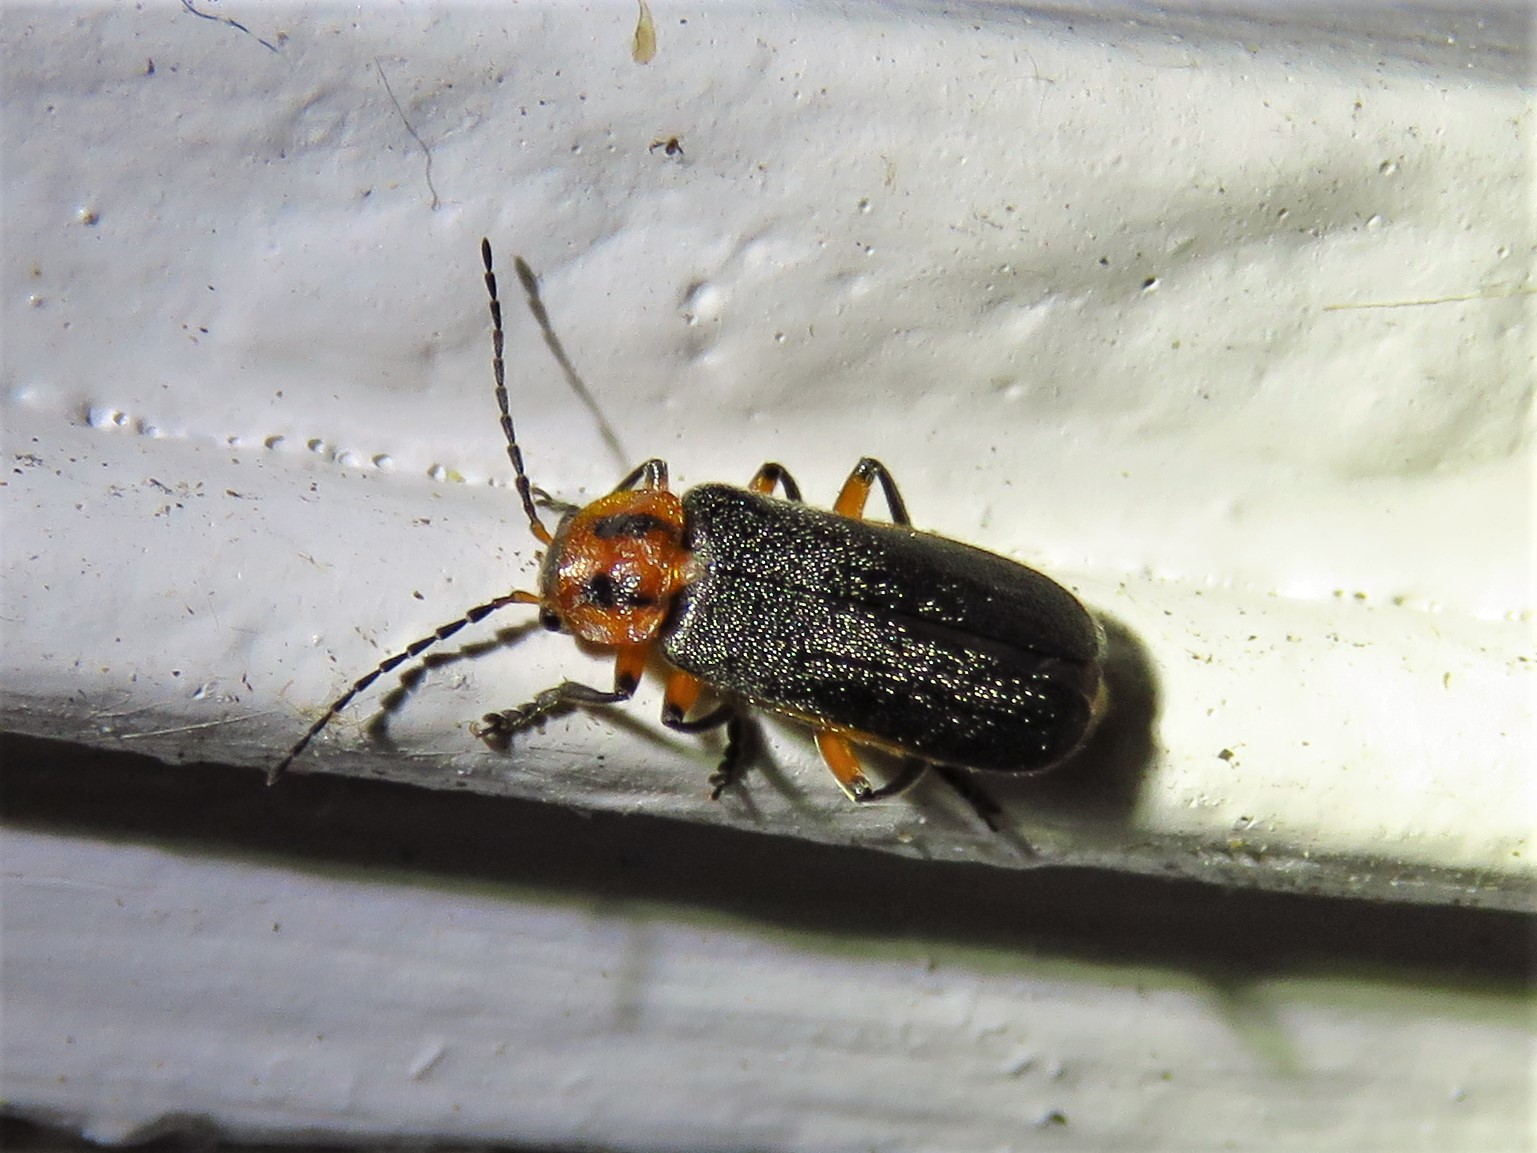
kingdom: Animalia
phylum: Arthropoda
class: Insecta
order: Coleoptera
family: Cantharidae
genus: Atalantycha
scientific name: Atalantycha bilineata
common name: Two-lined leatherwing
